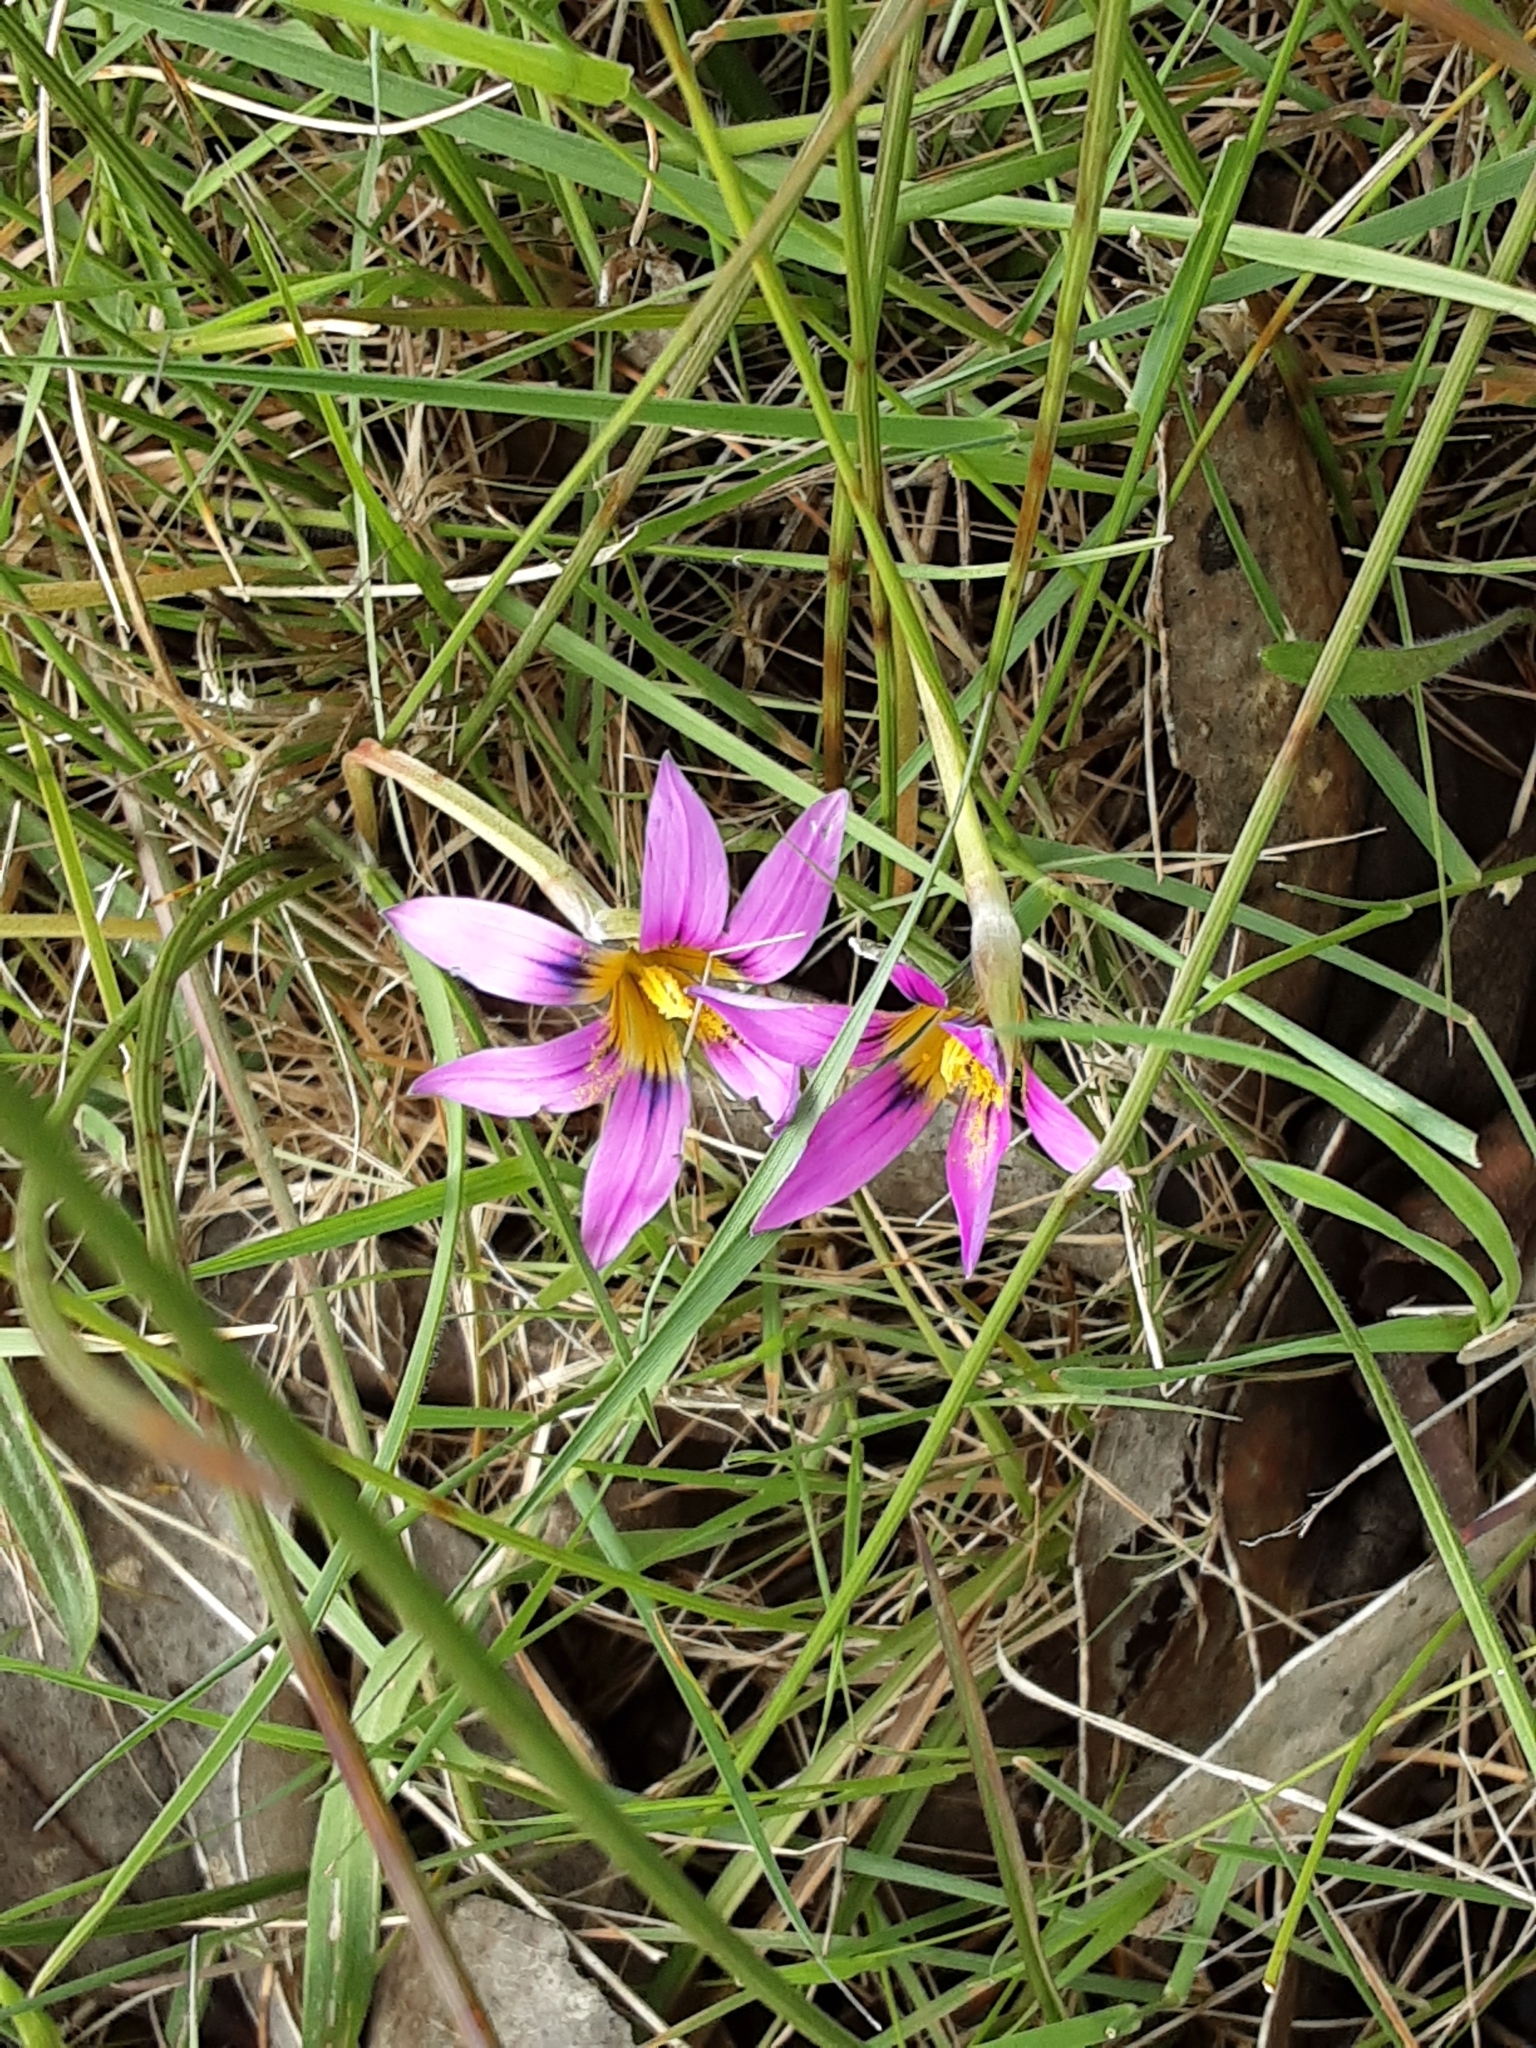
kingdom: Plantae
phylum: Tracheophyta
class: Liliopsida
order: Asparagales
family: Iridaceae
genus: Romulea
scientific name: Romulea rosea
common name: Oniongrass
